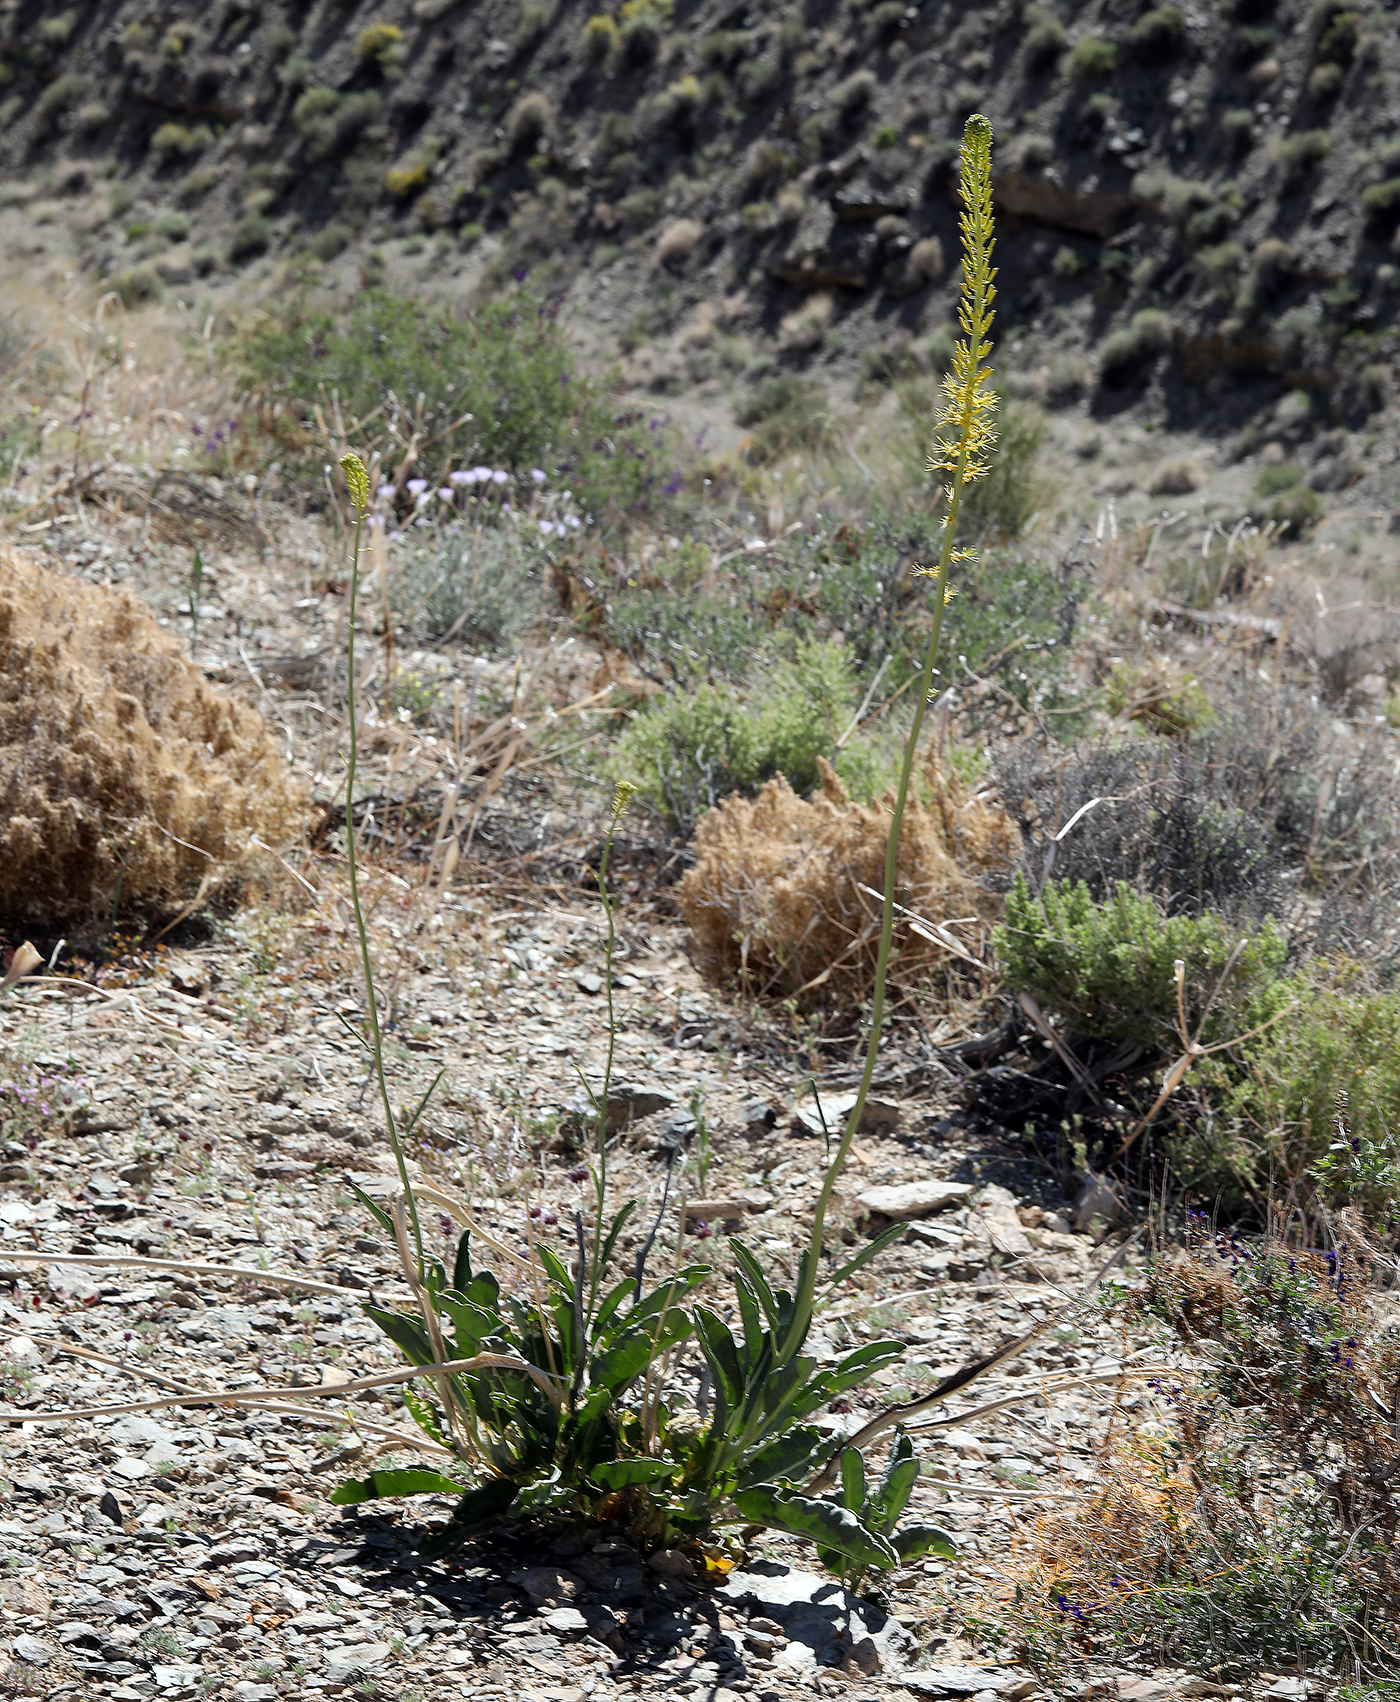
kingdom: Plantae
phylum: Tracheophyta
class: Magnoliopsida
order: Brassicales
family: Brassicaceae
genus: Stanleya
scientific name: Stanleya elata
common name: Panamint prince's plume
